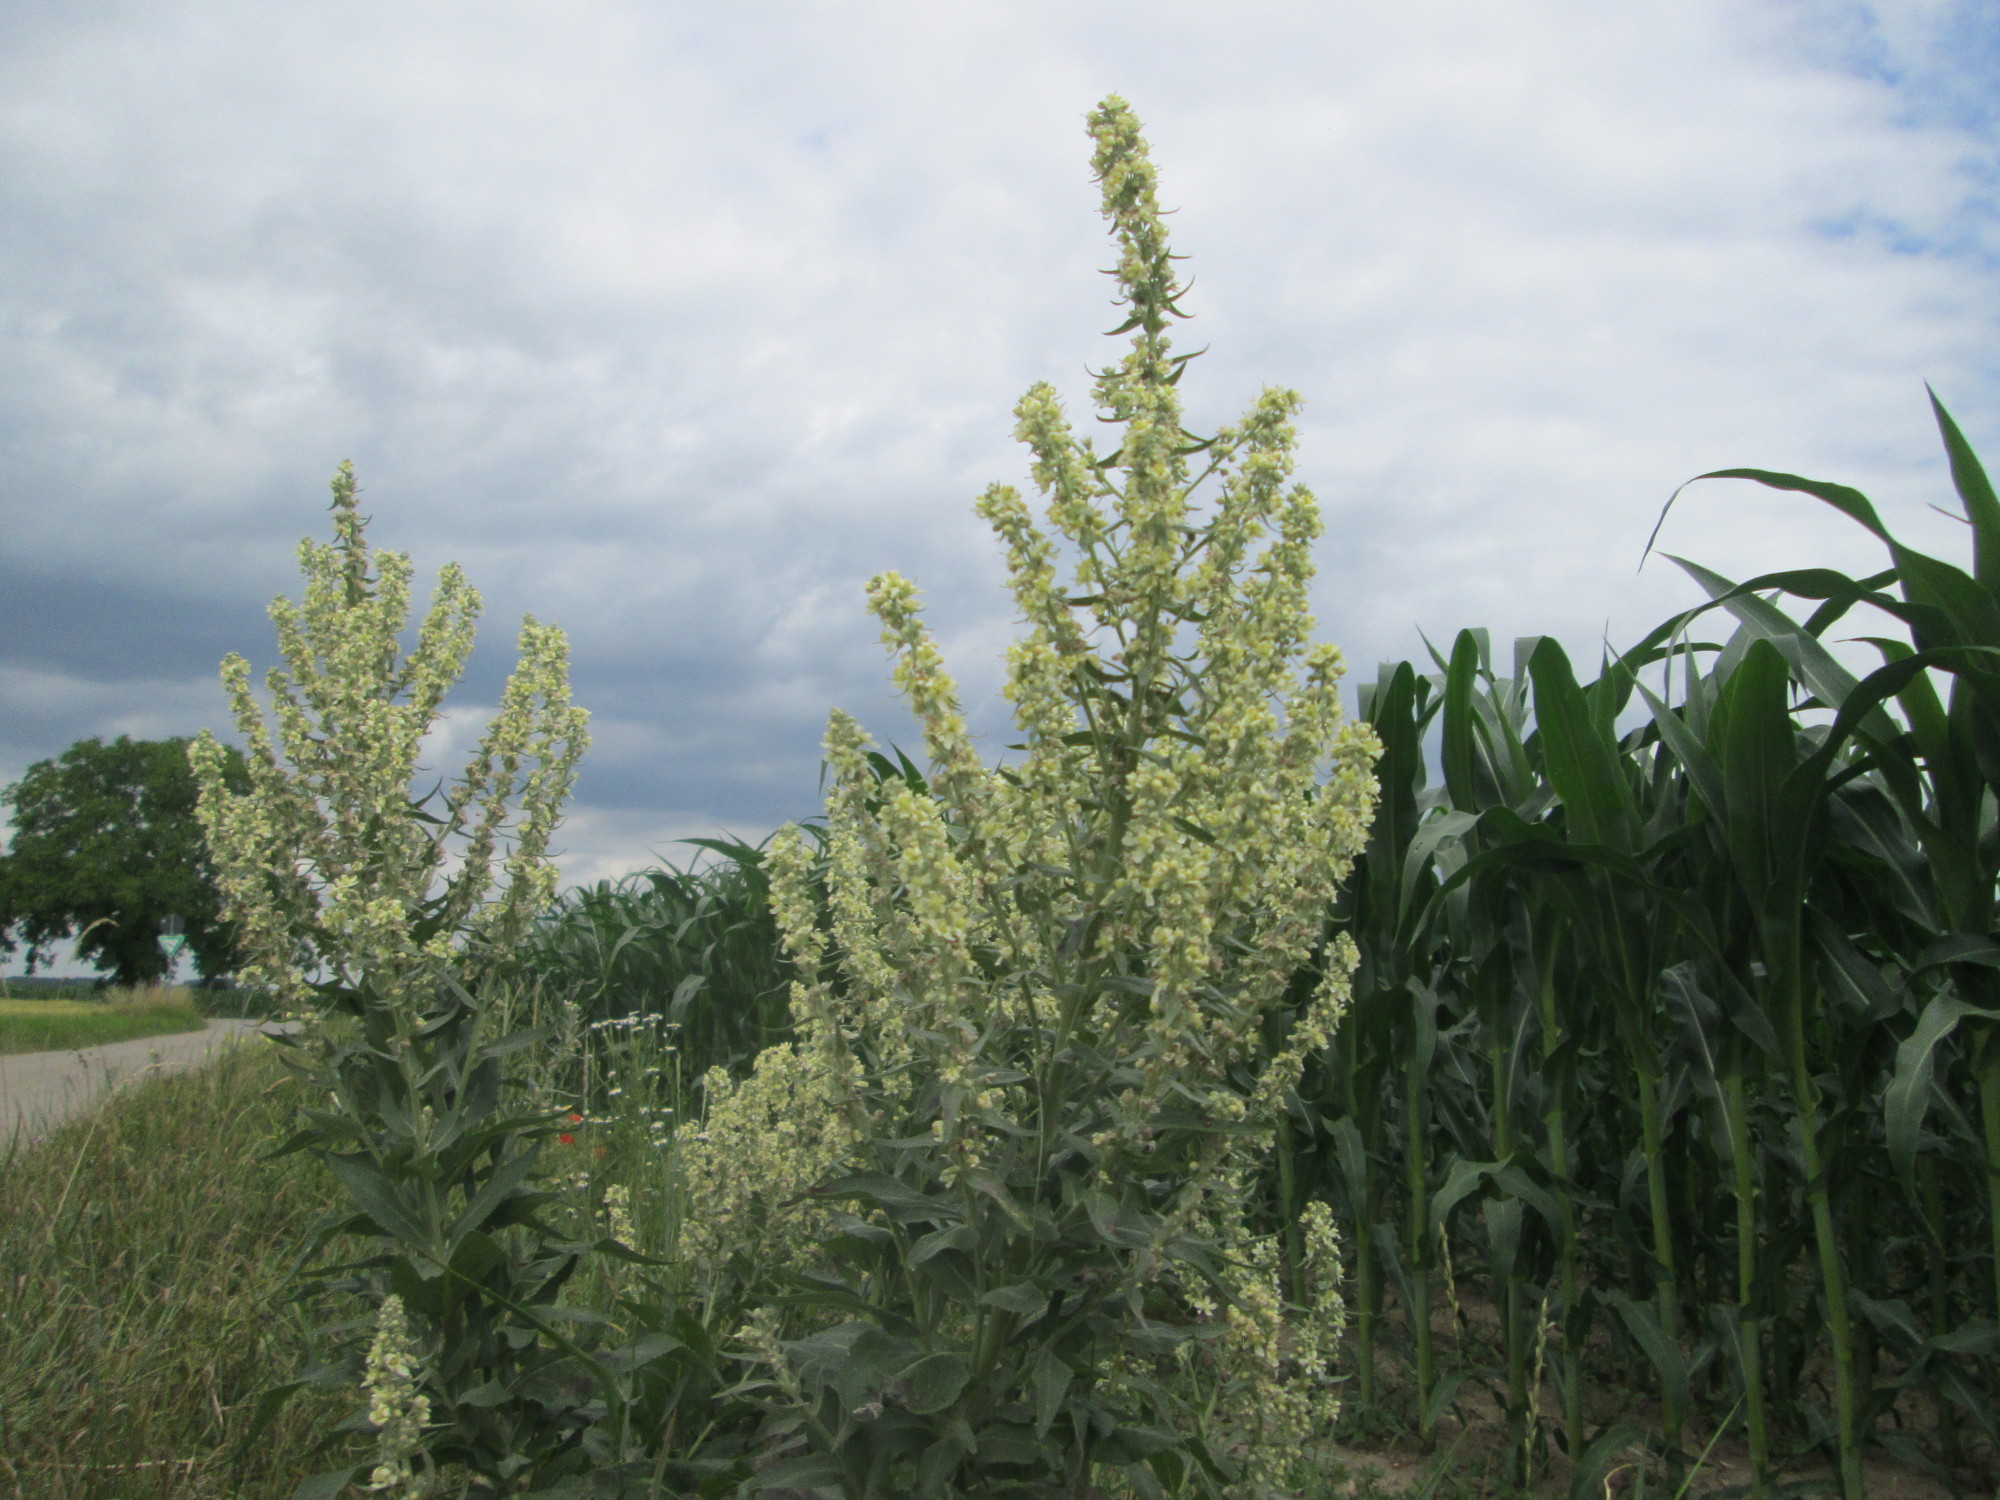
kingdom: Plantae
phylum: Tracheophyta
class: Magnoliopsida
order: Lamiales
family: Scrophulariaceae
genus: Verbascum
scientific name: Verbascum lychnitis
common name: White mullein
